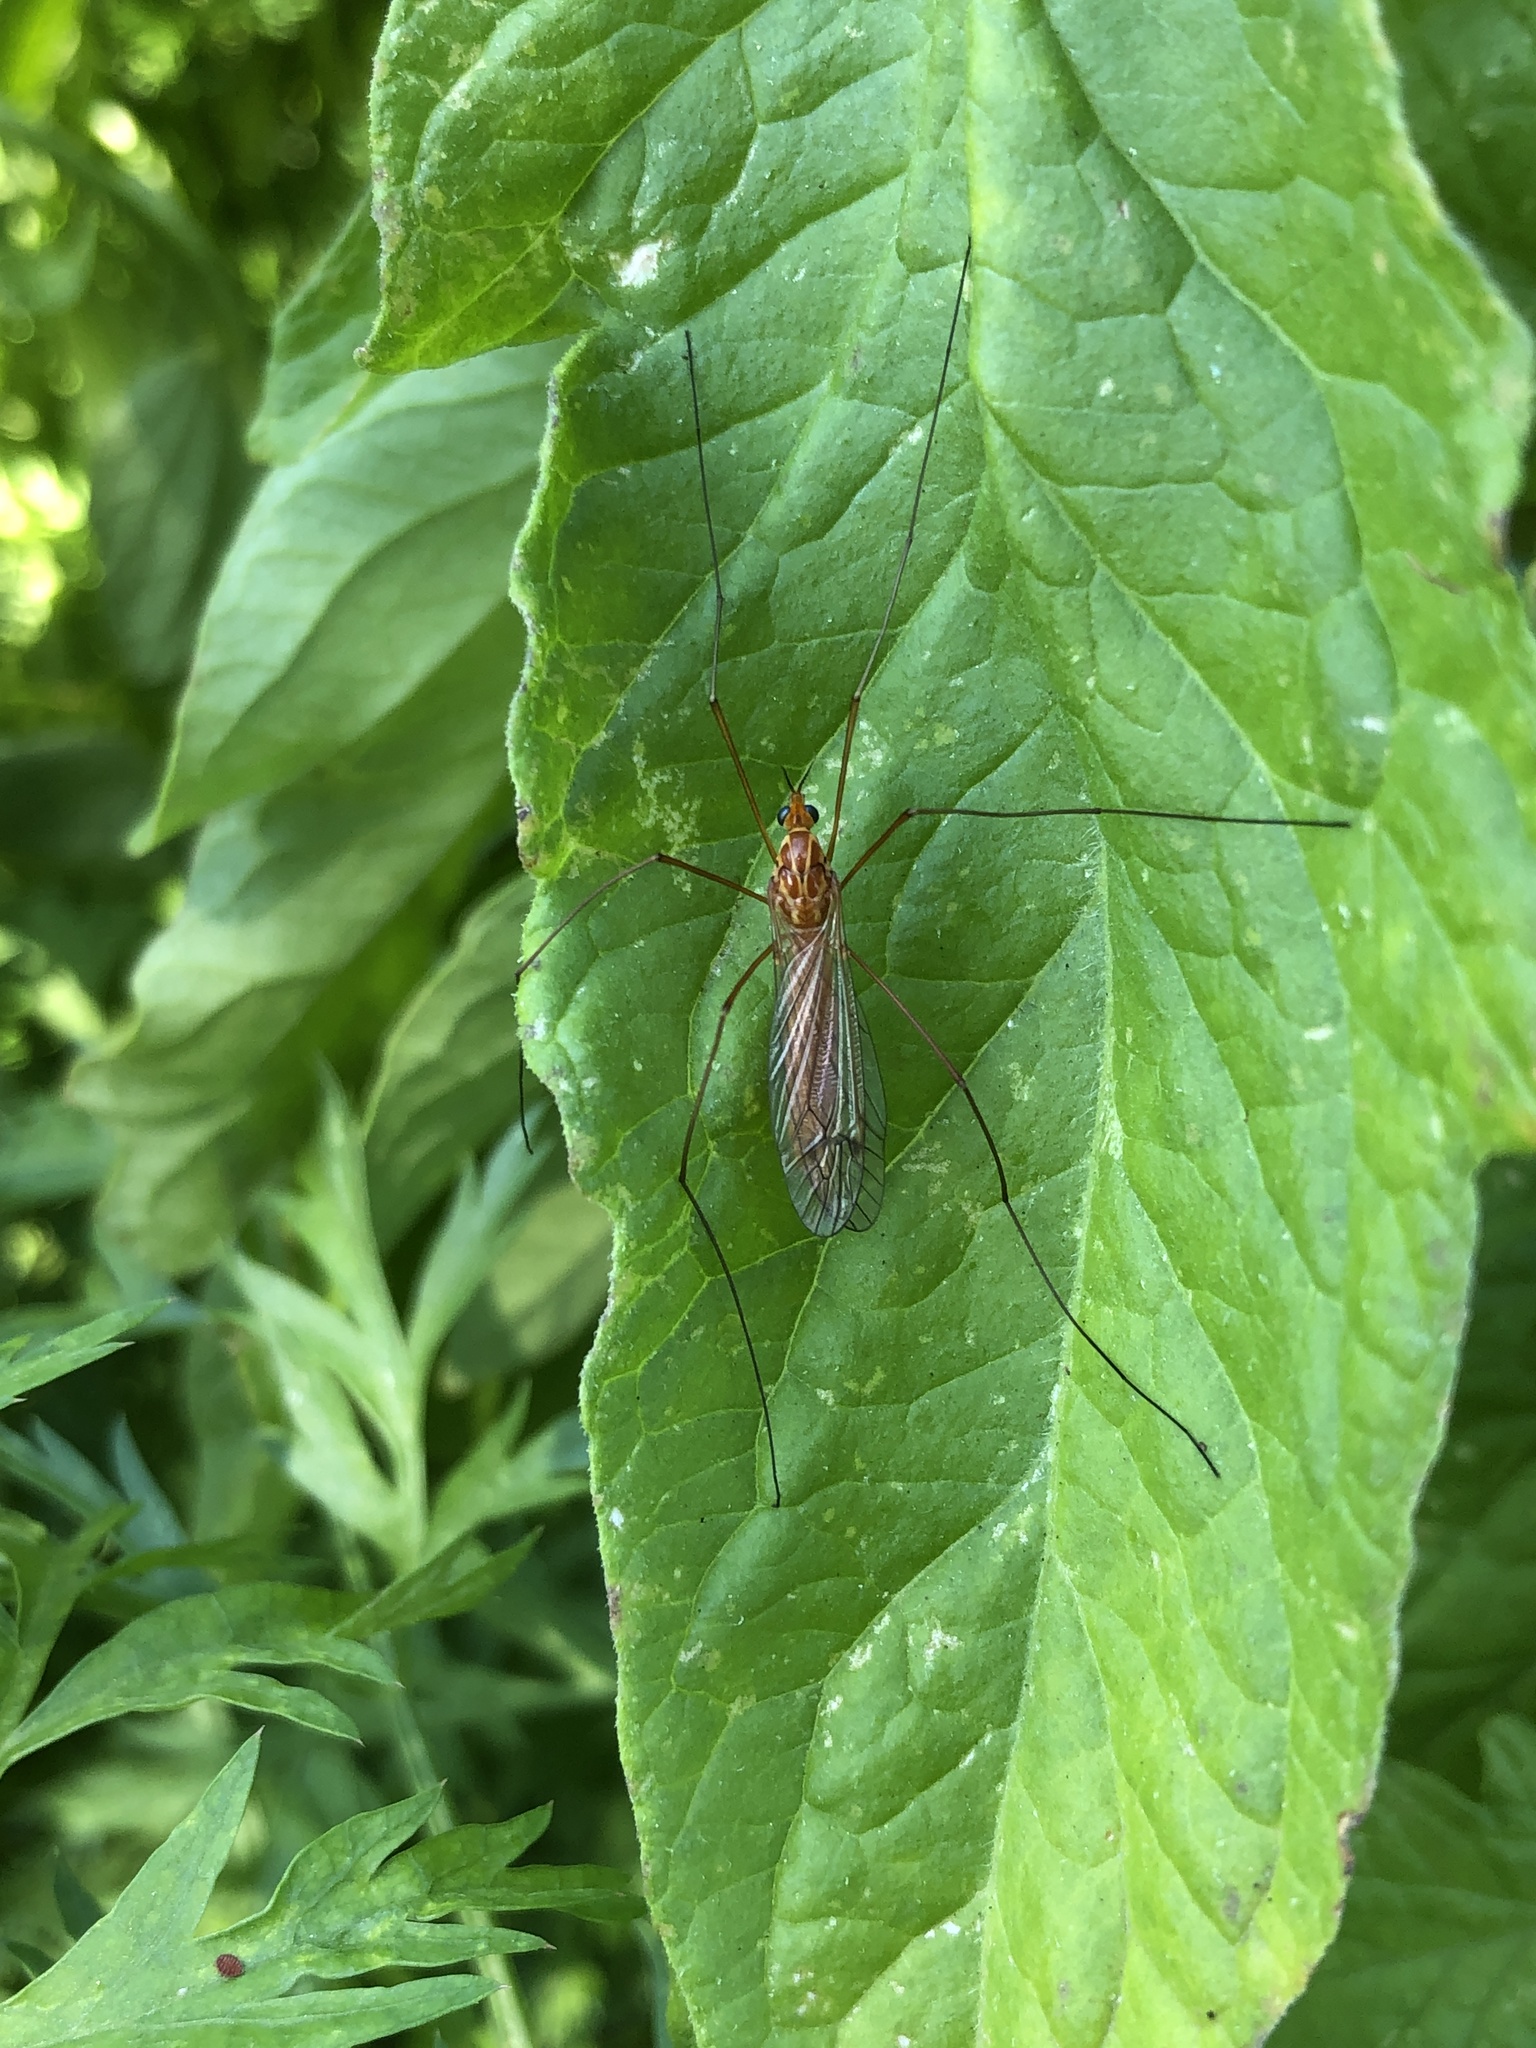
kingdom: Animalia
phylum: Arthropoda
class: Insecta
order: Diptera
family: Tipulidae
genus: Nephrotoma
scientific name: Nephrotoma
